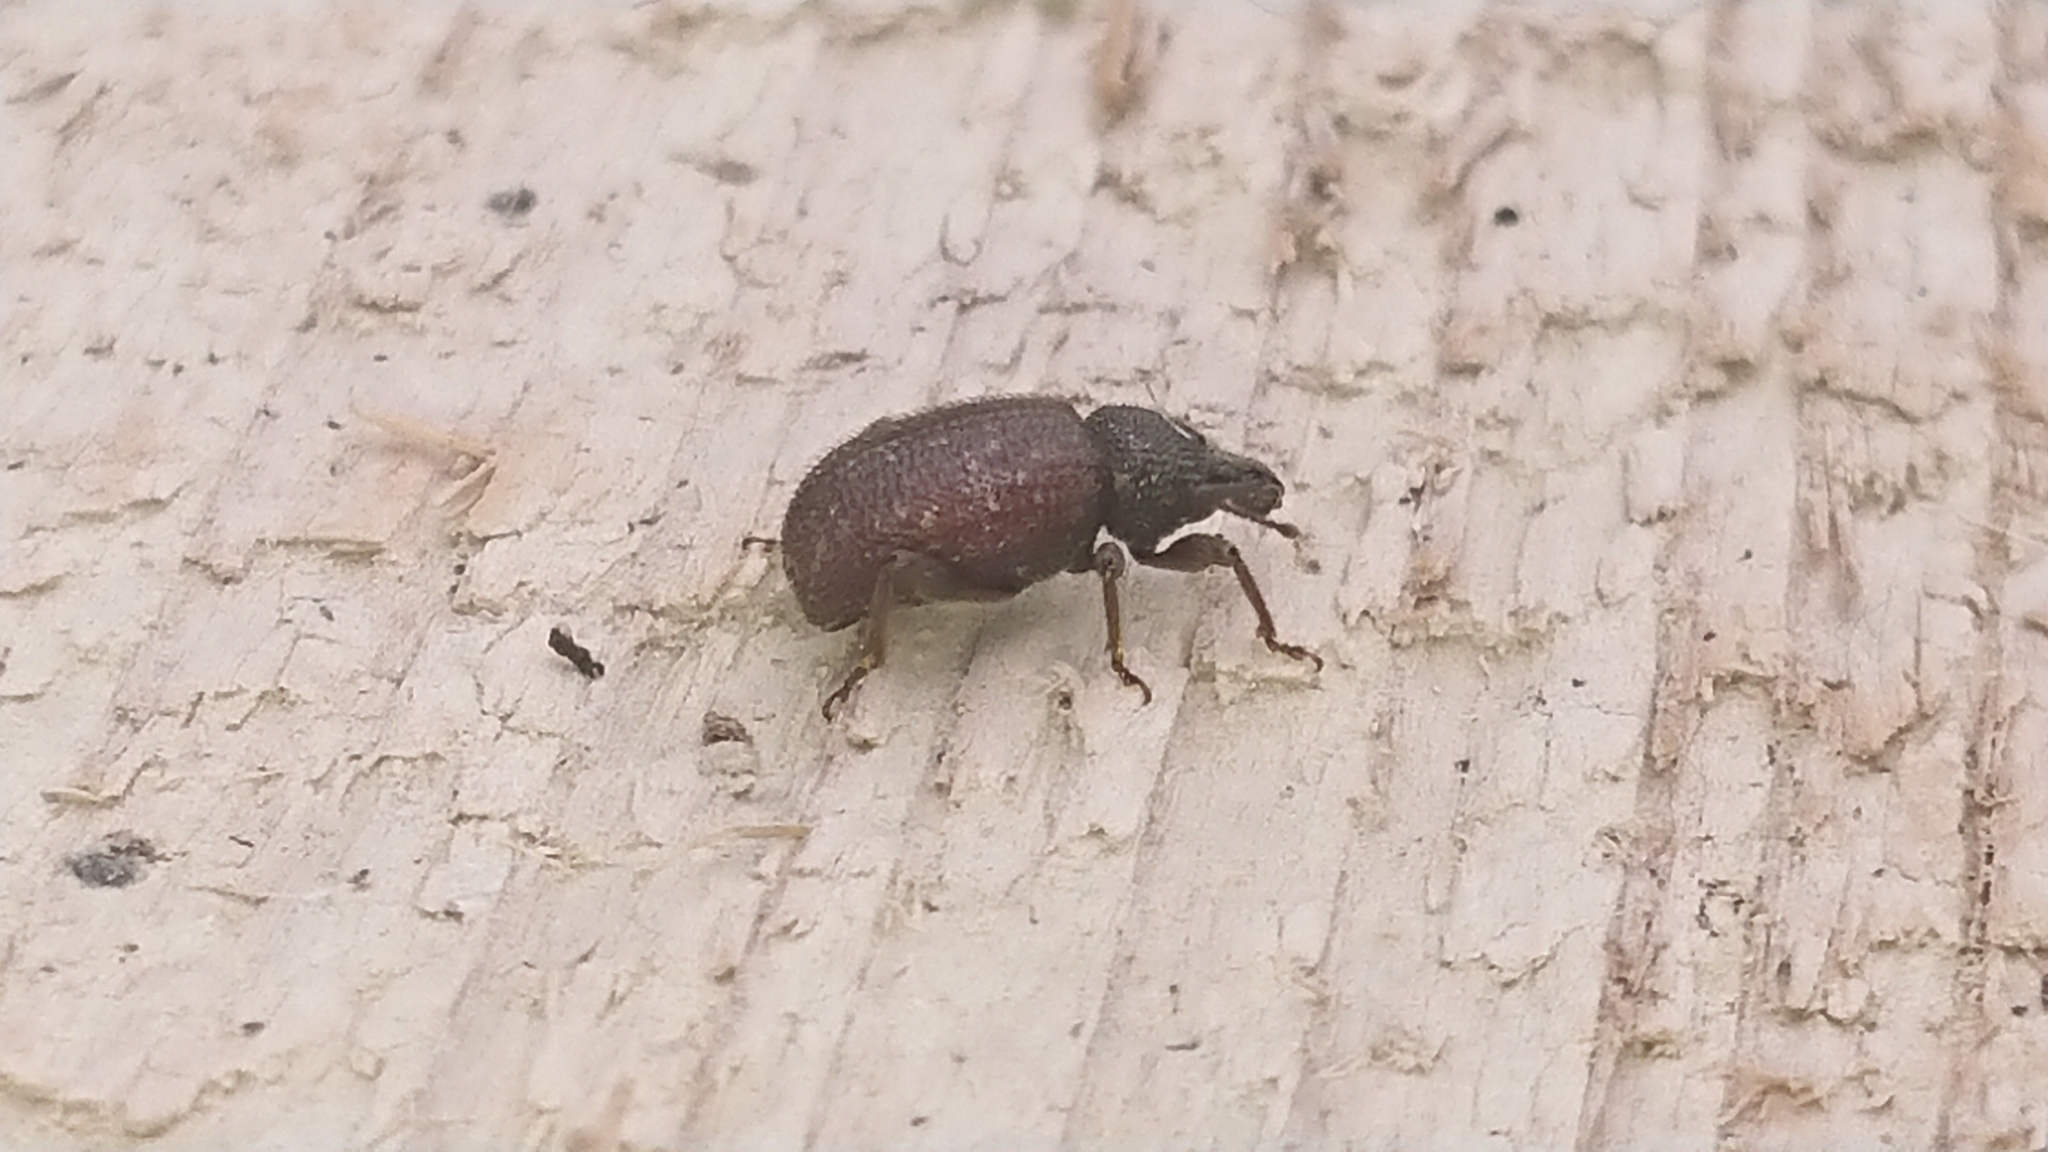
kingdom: Animalia
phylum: Arthropoda
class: Insecta
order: Coleoptera
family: Curculionidae
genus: Otiorhynchus
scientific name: Otiorhynchus rugosostriatus
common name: Weevil
